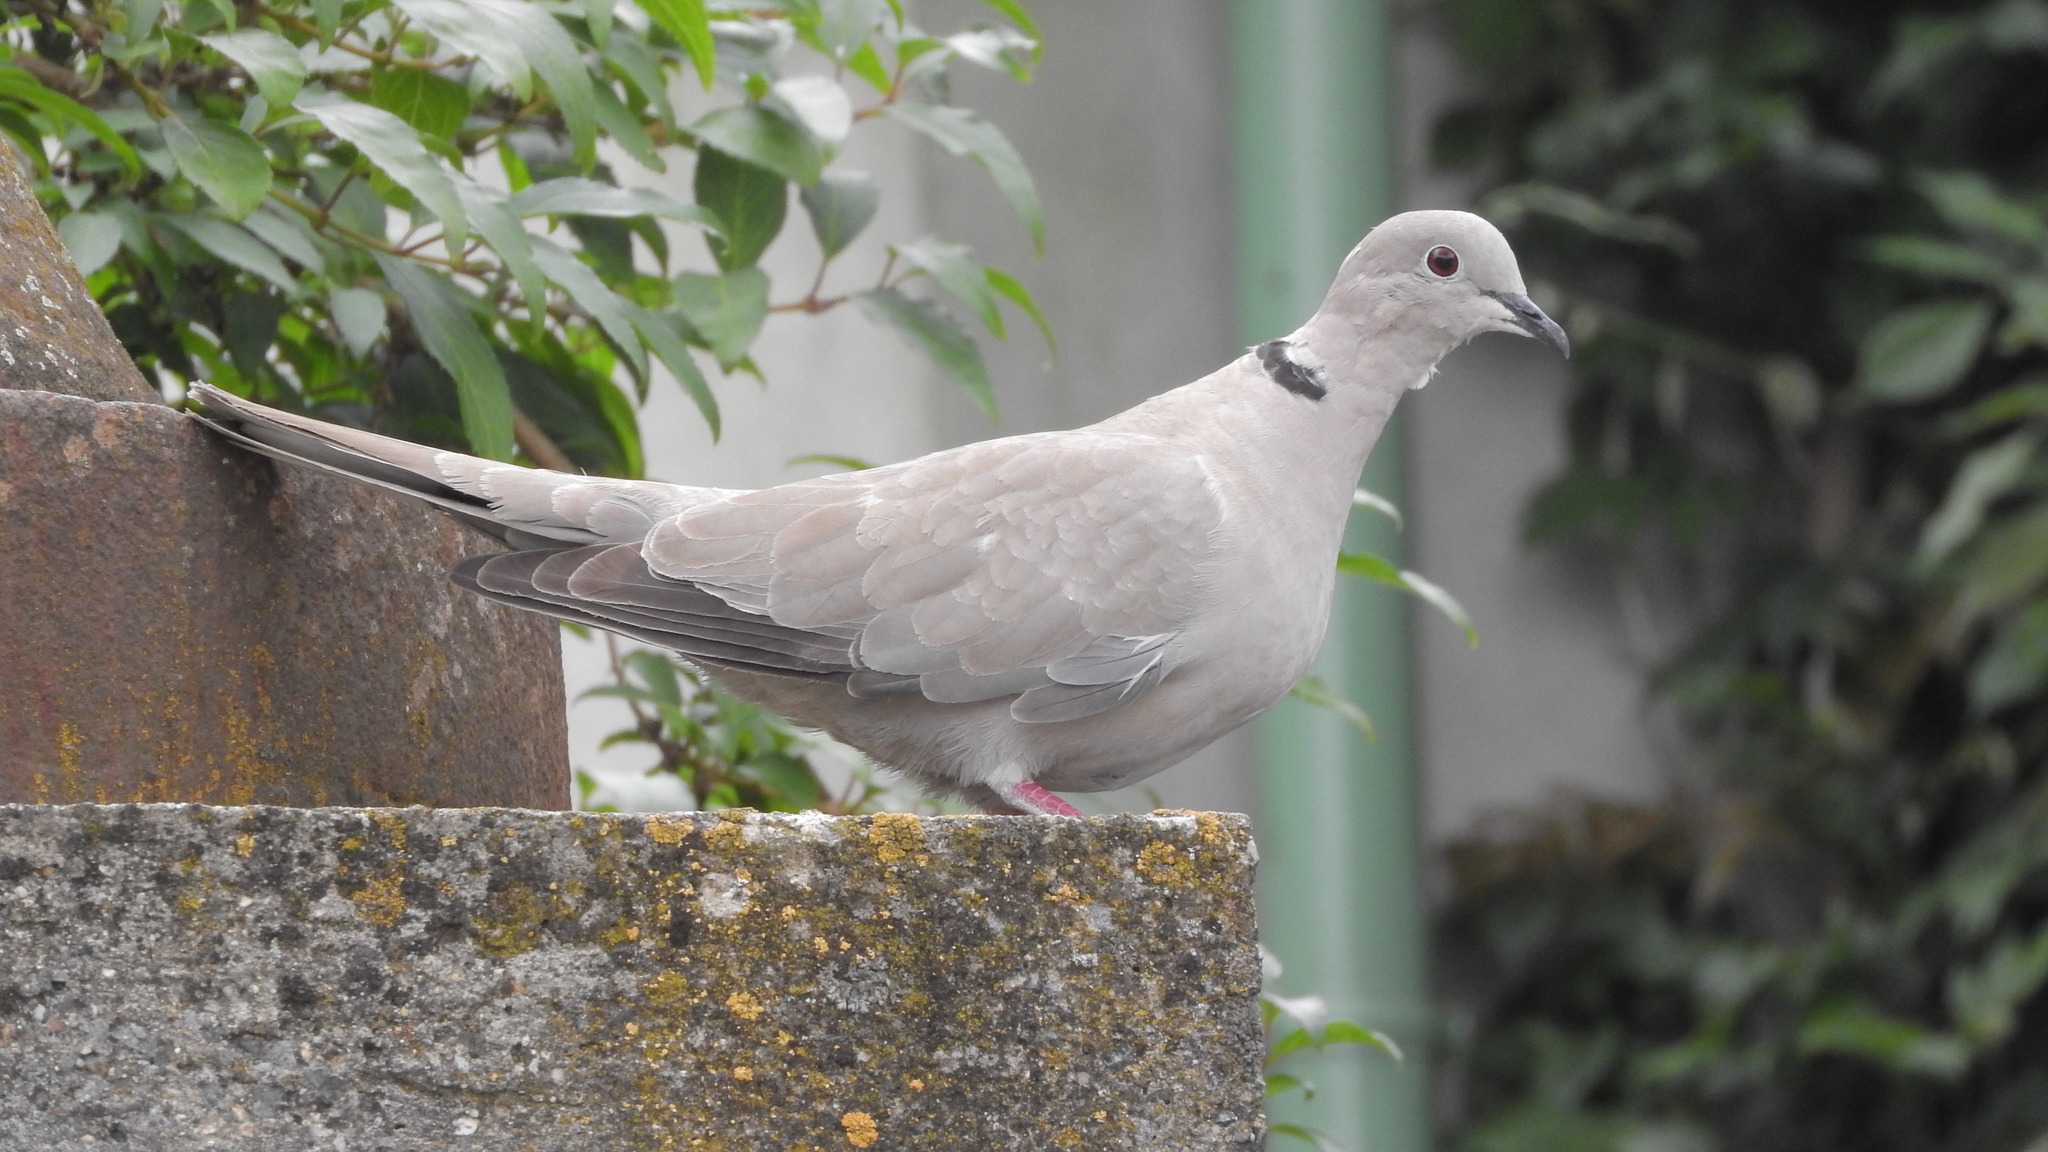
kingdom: Animalia
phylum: Chordata
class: Aves
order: Columbiformes
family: Columbidae
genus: Streptopelia
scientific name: Streptopelia decaocto
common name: Eurasian collared dove
